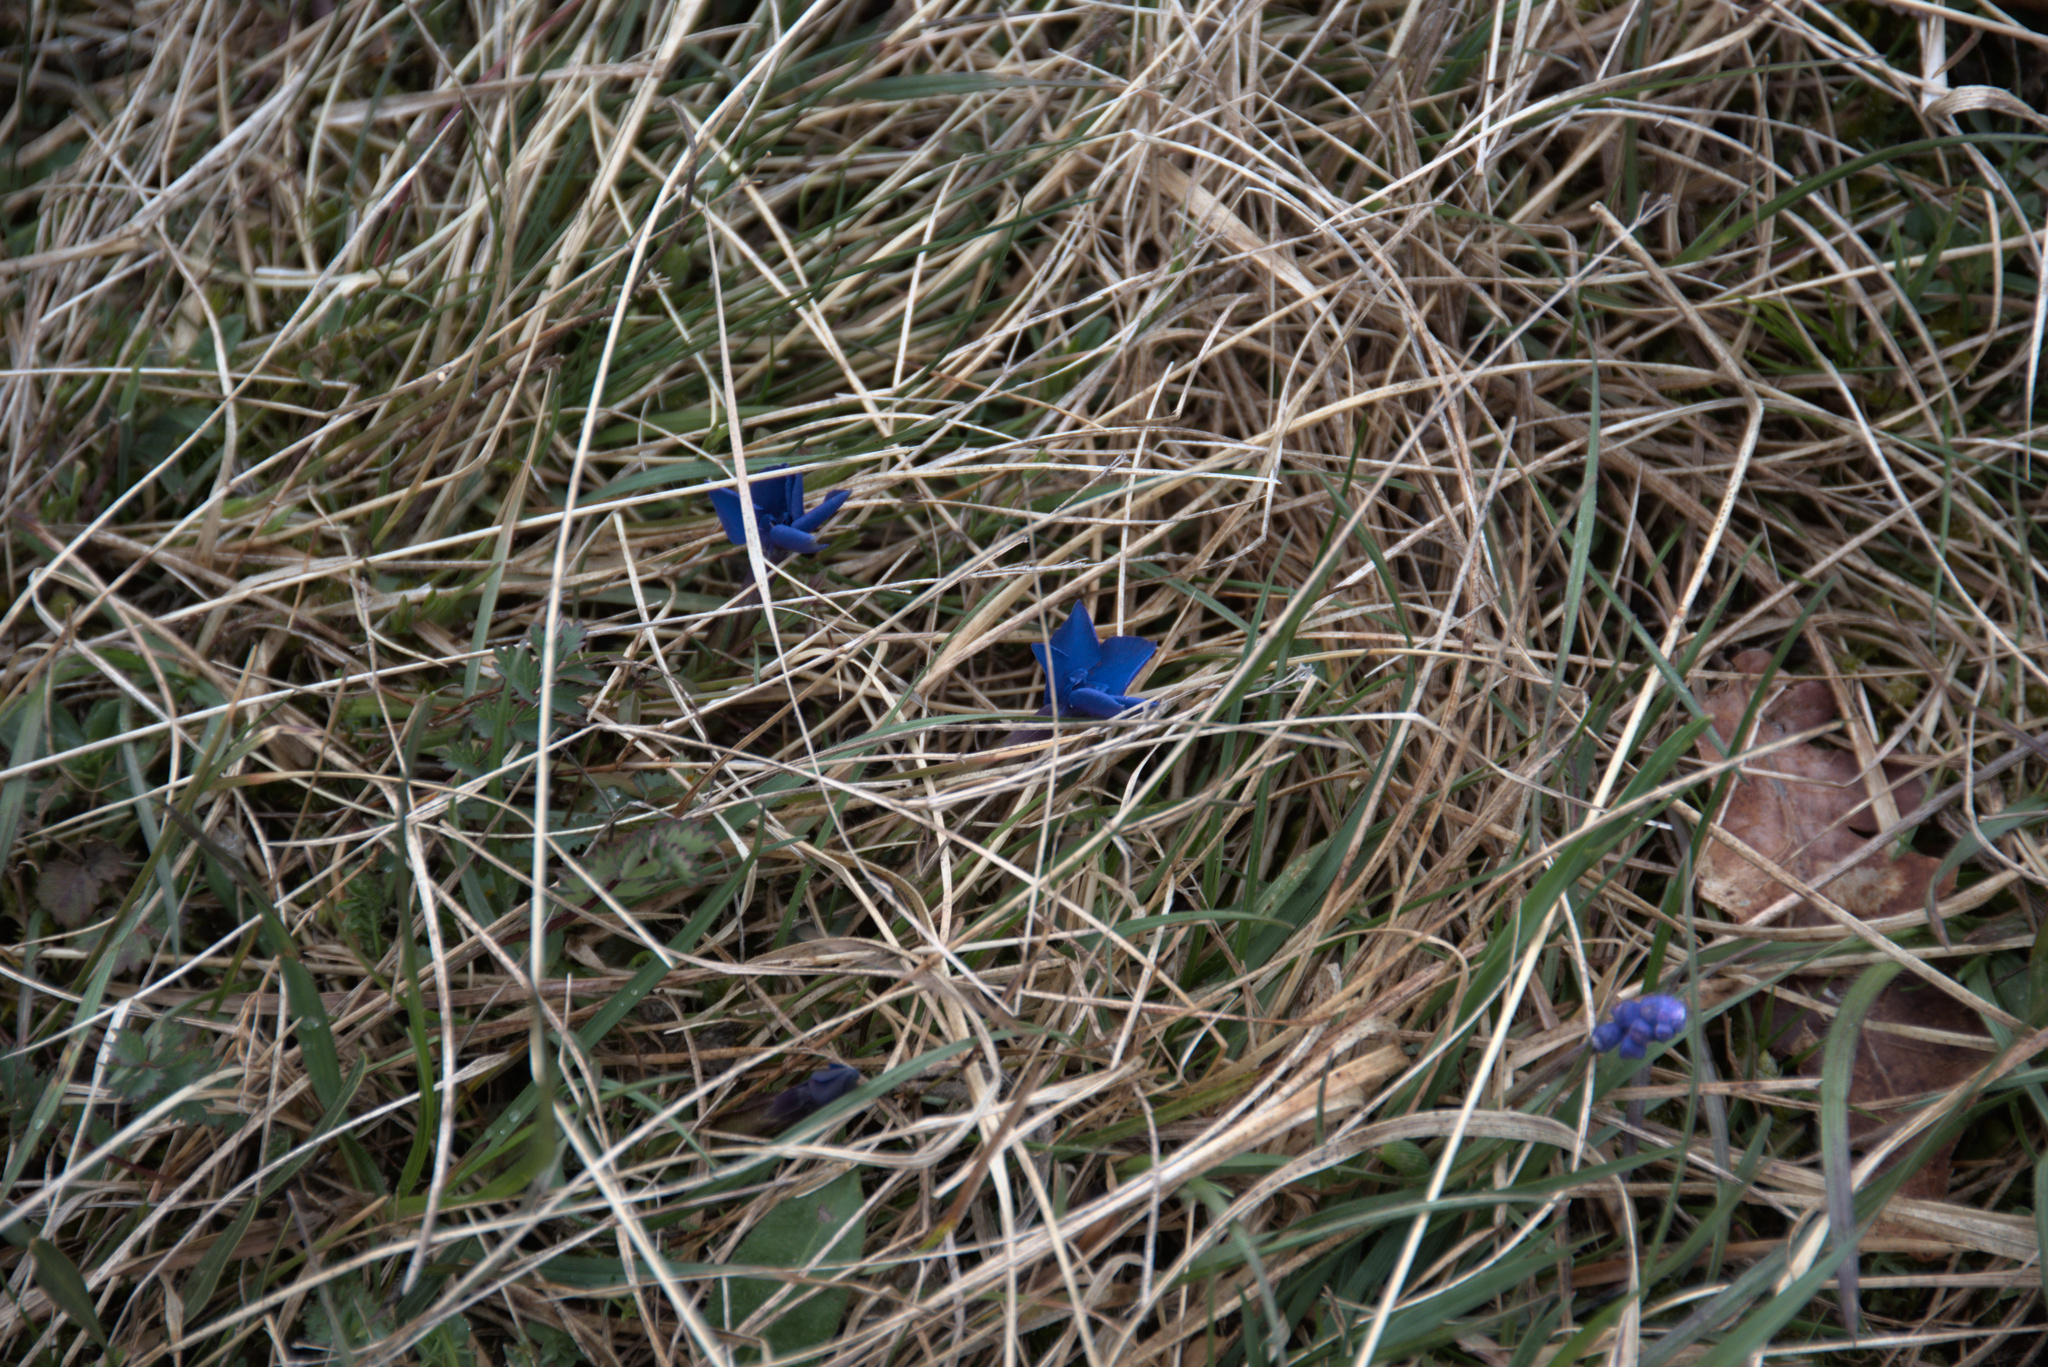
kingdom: Plantae
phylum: Tracheophyta
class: Magnoliopsida
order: Gentianales
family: Gentianaceae
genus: Gentiana
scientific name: Gentiana verna
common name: Spring gentian
